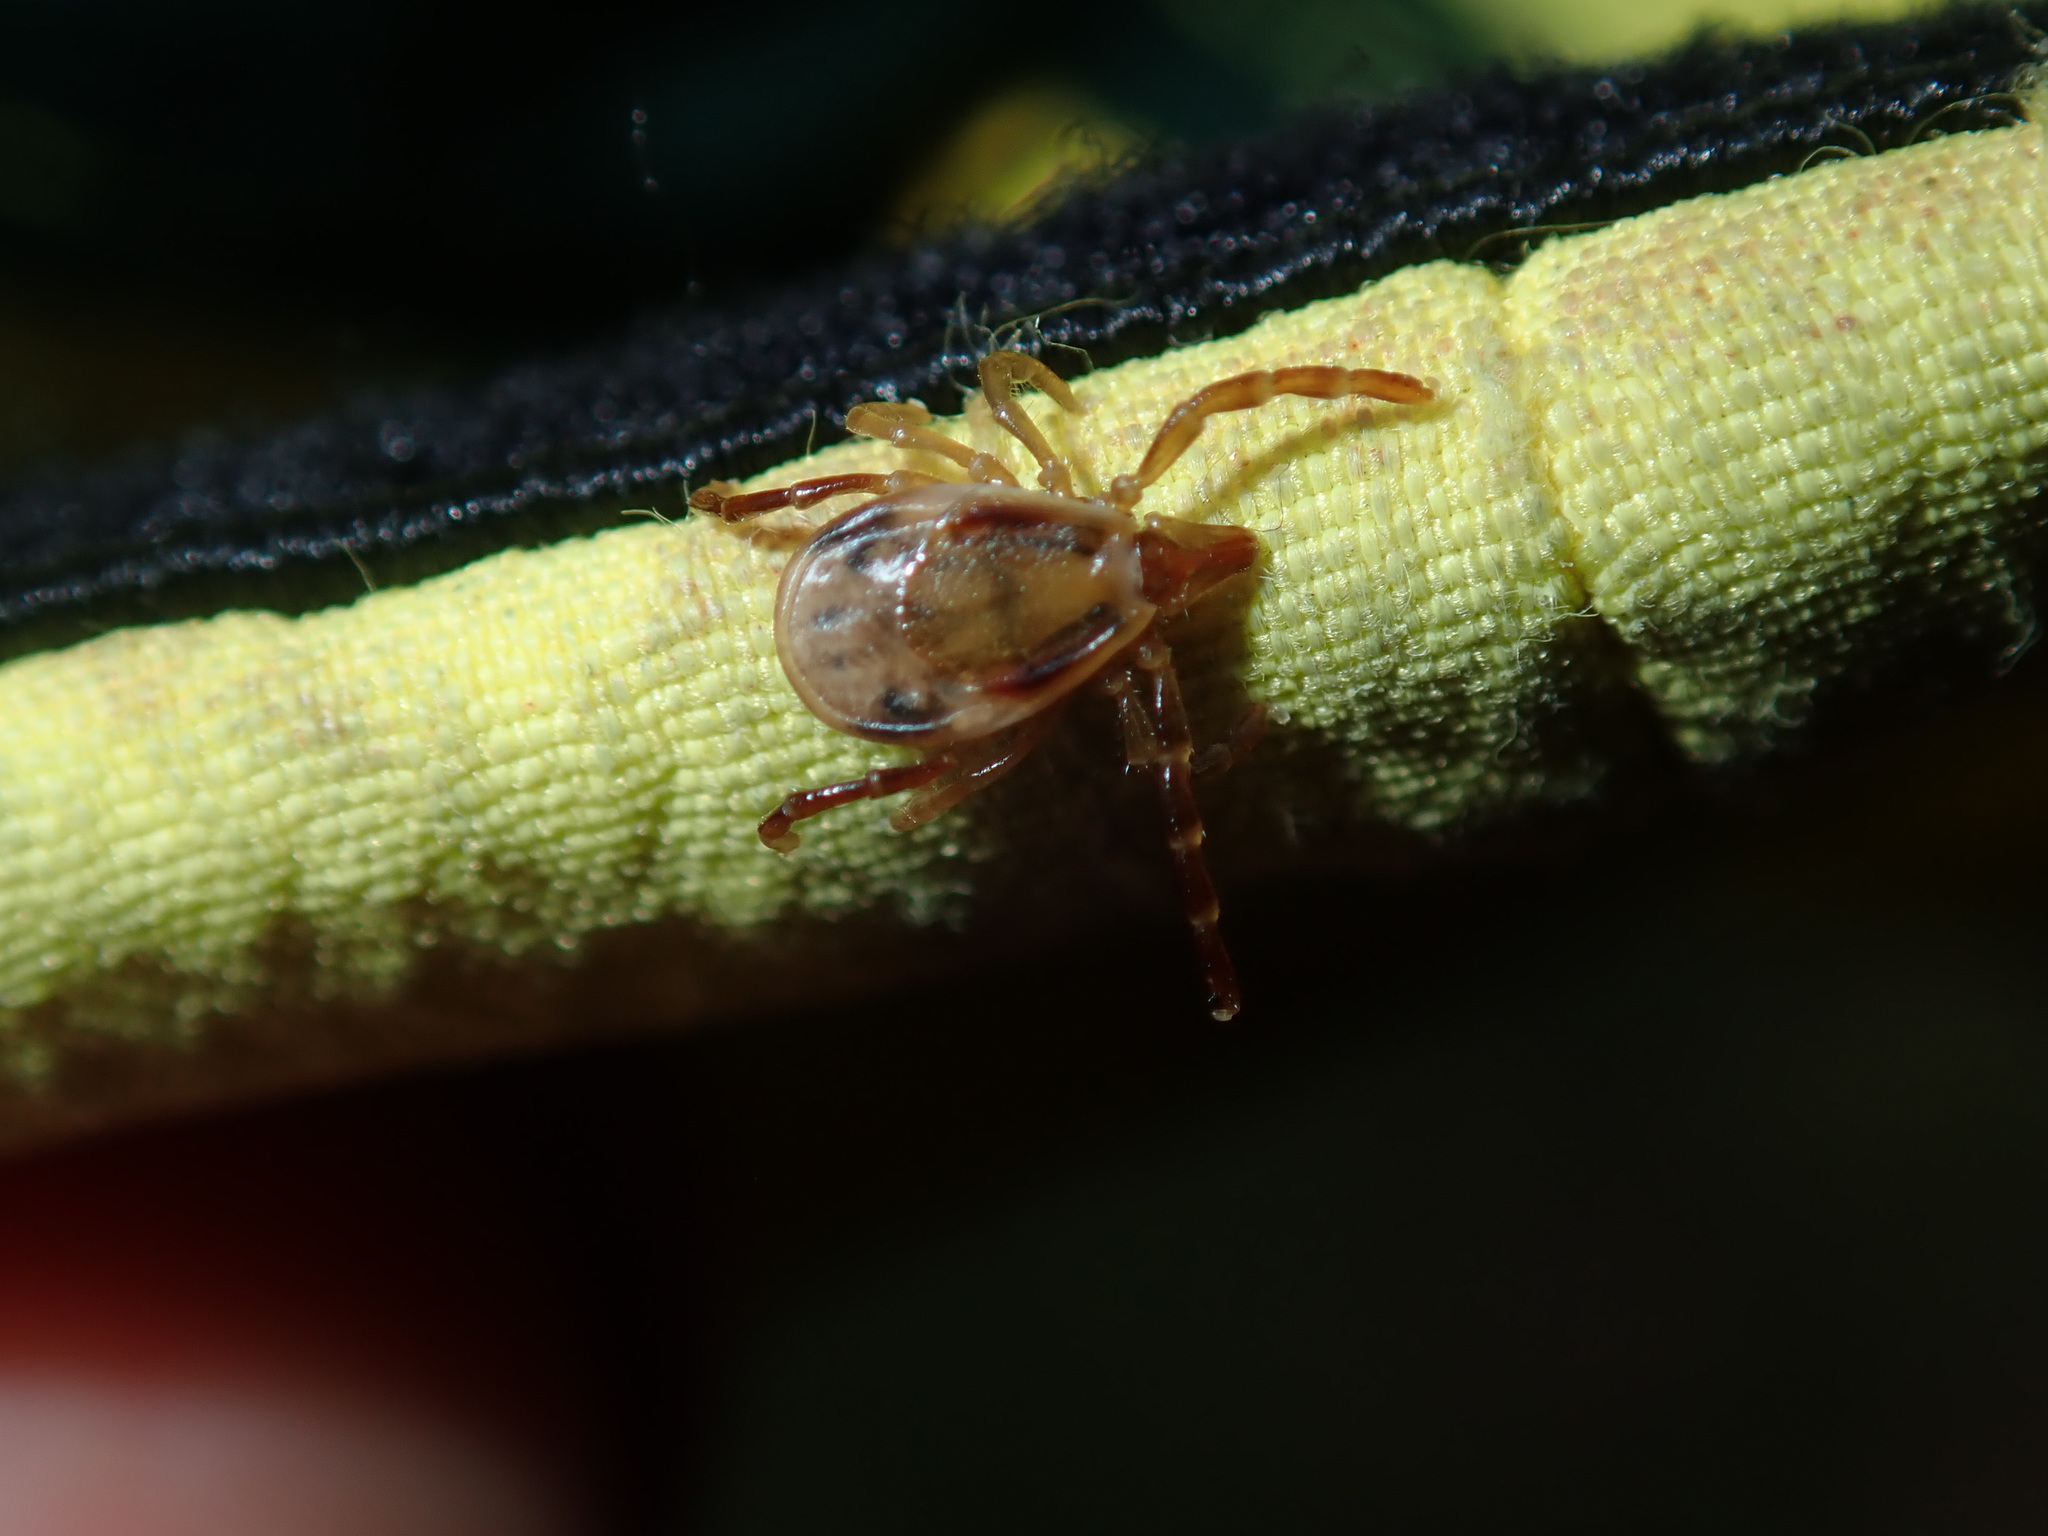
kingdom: Animalia
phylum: Arthropoda
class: Arachnida
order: Ixodida
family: Ixodidae
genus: Ixodes
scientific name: Ixodes holocyclus
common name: Australian paralysis tick
